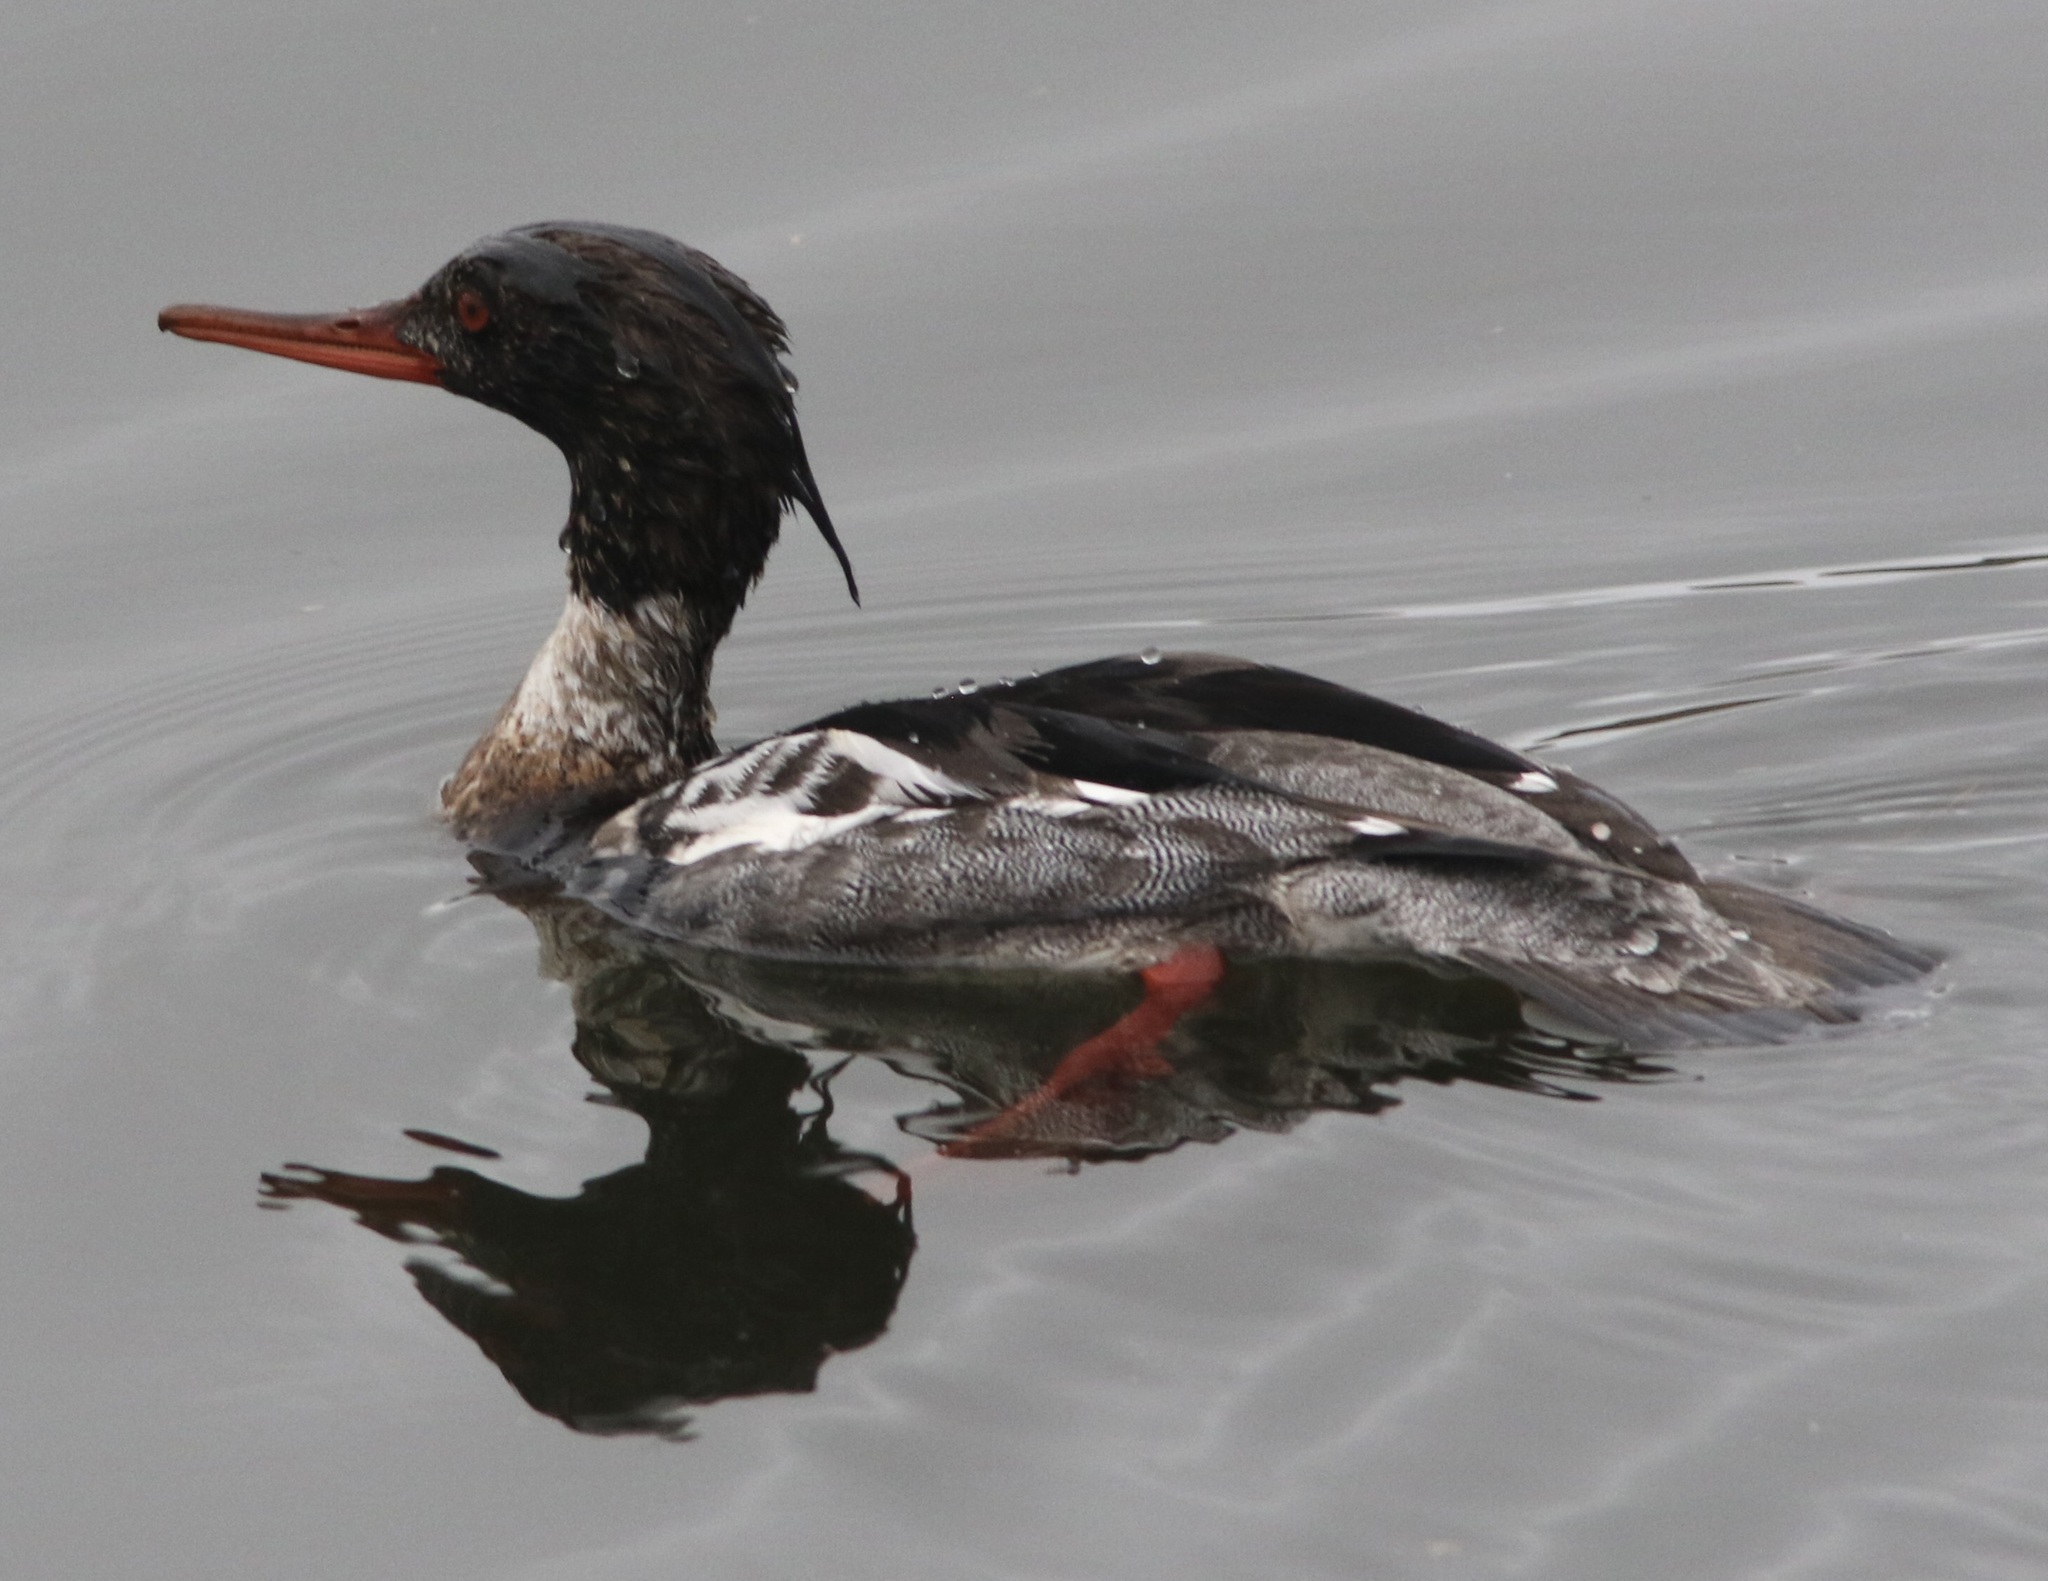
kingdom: Animalia
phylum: Chordata
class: Aves
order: Anseriformes
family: Anatidae
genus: Mergus
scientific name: Mergus serrator
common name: Red-breasted merganser
